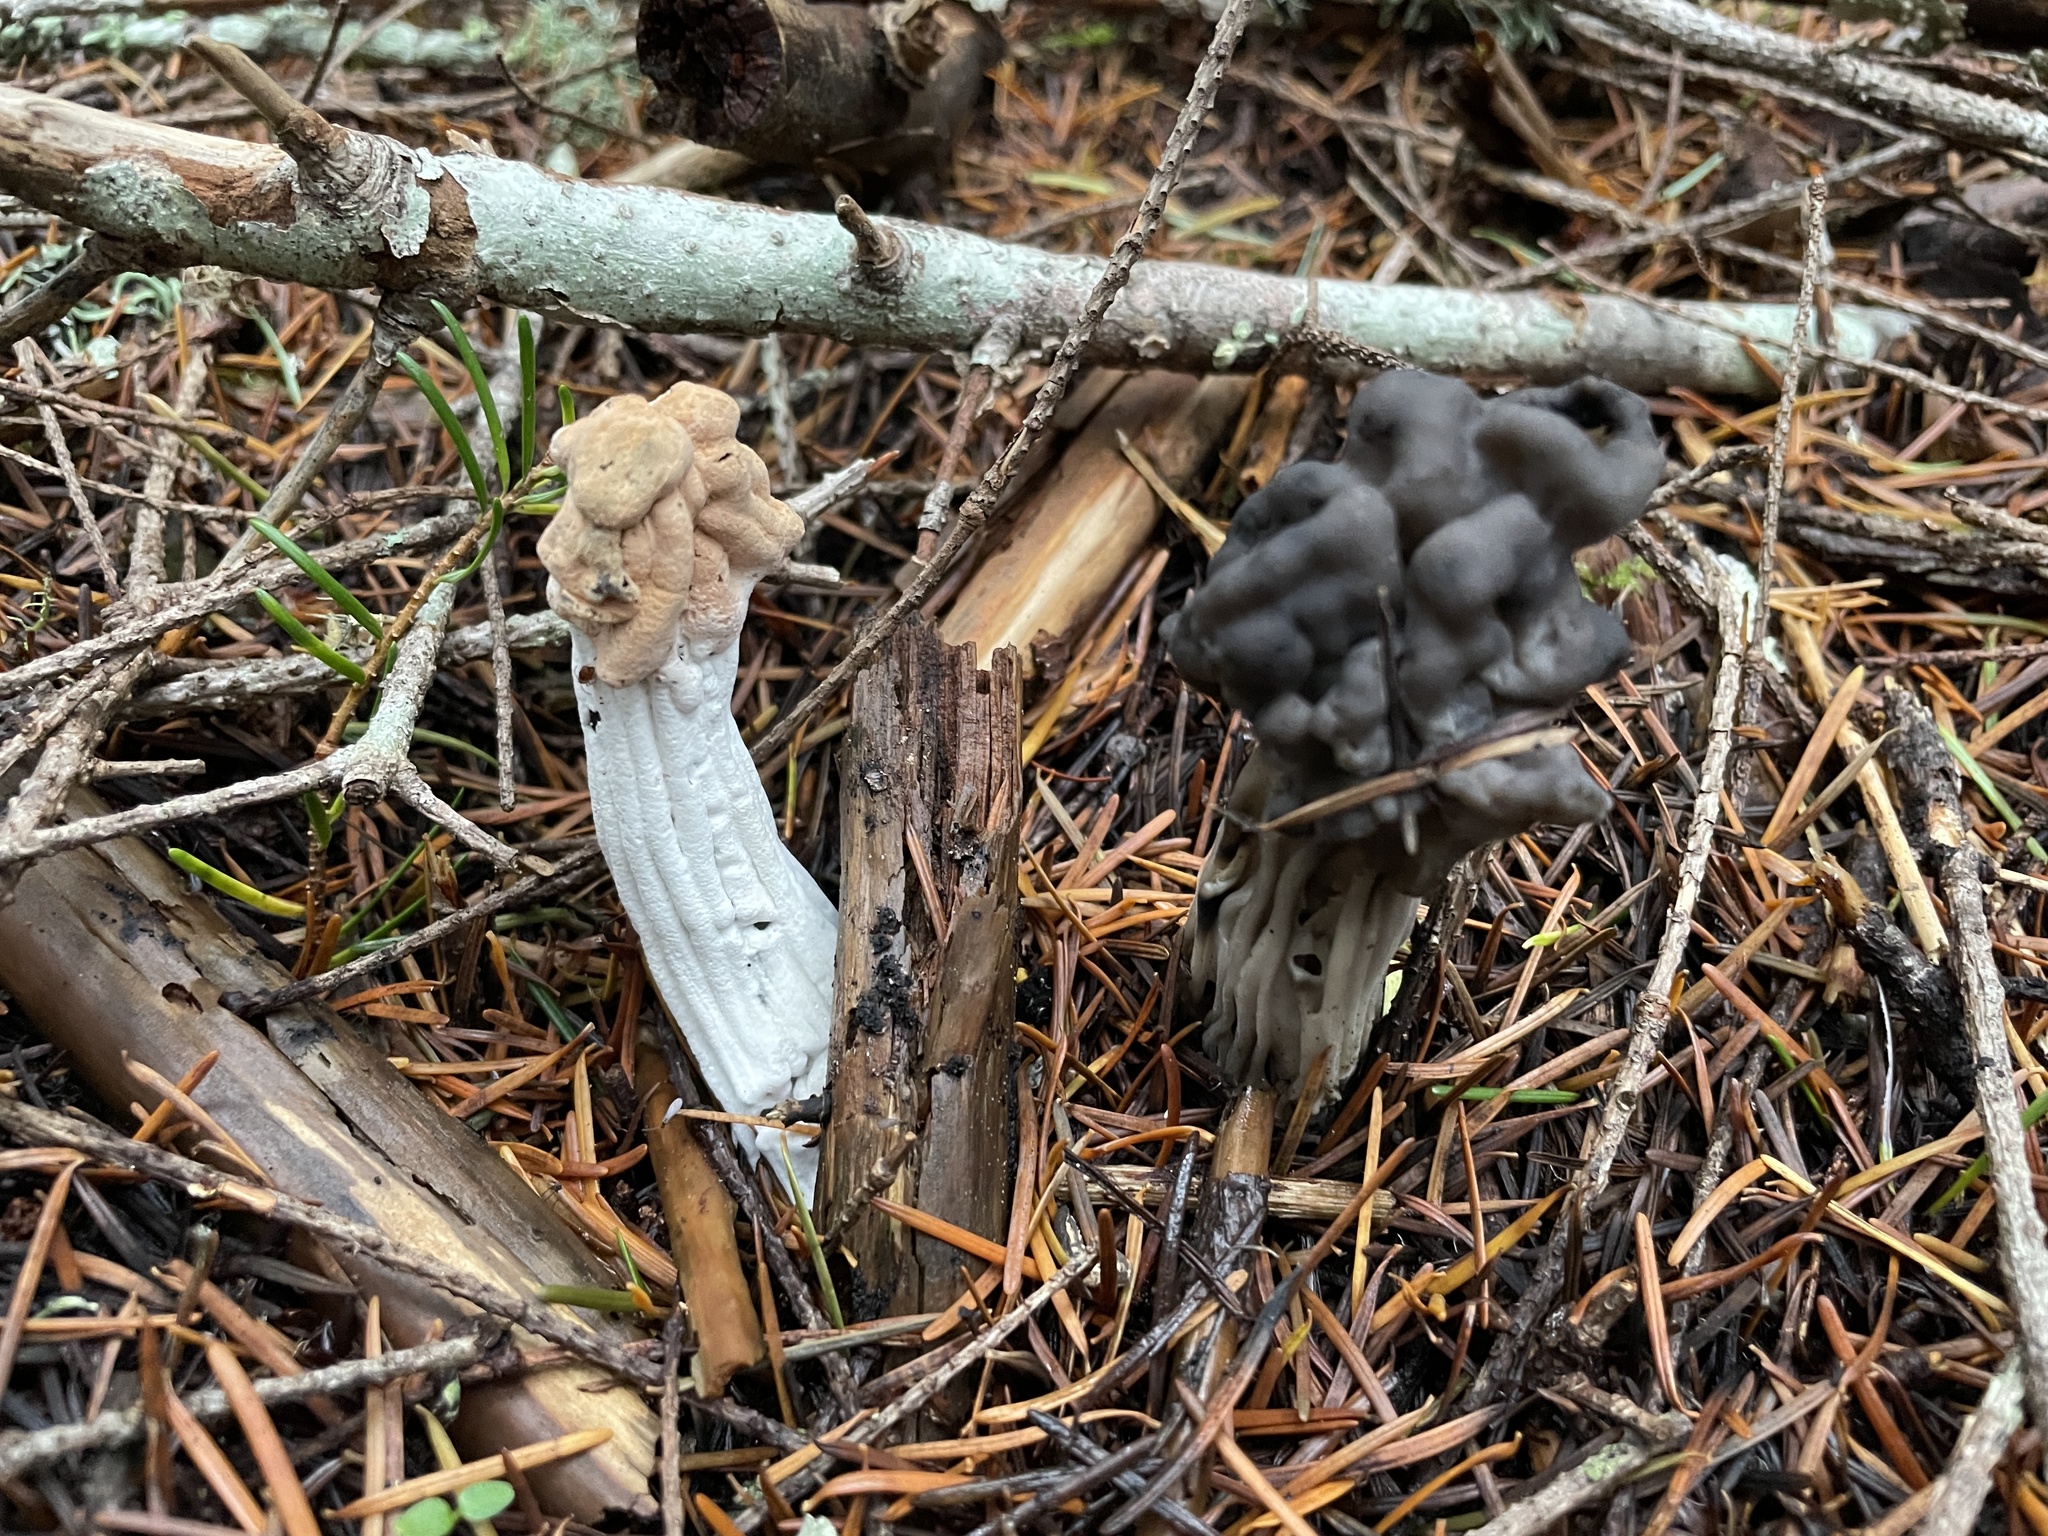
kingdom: Fungi
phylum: Ascomycota
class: Pezizomycetes
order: Pezizales
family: Helvellaceae
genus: Helvella
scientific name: Helvella vespertina
